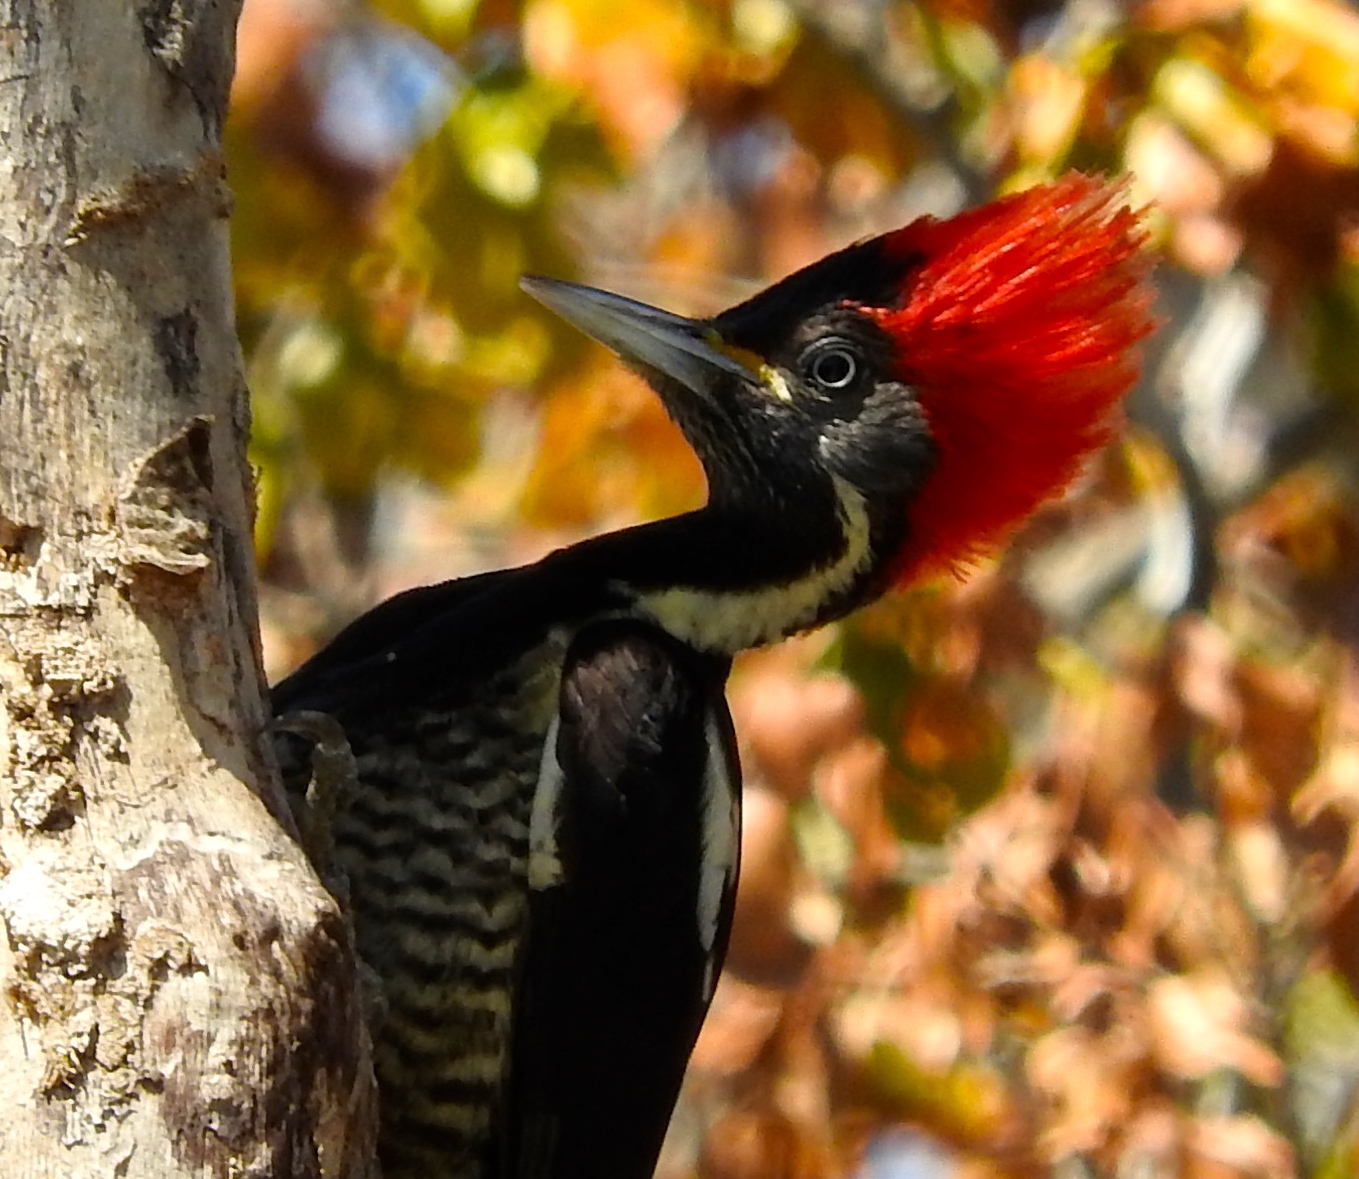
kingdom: Animalia
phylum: Chordata
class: Aves
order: Piciformes
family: Picidae
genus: Dryocopus
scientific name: Dryocopus lineatus
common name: Lineated woodpecker
